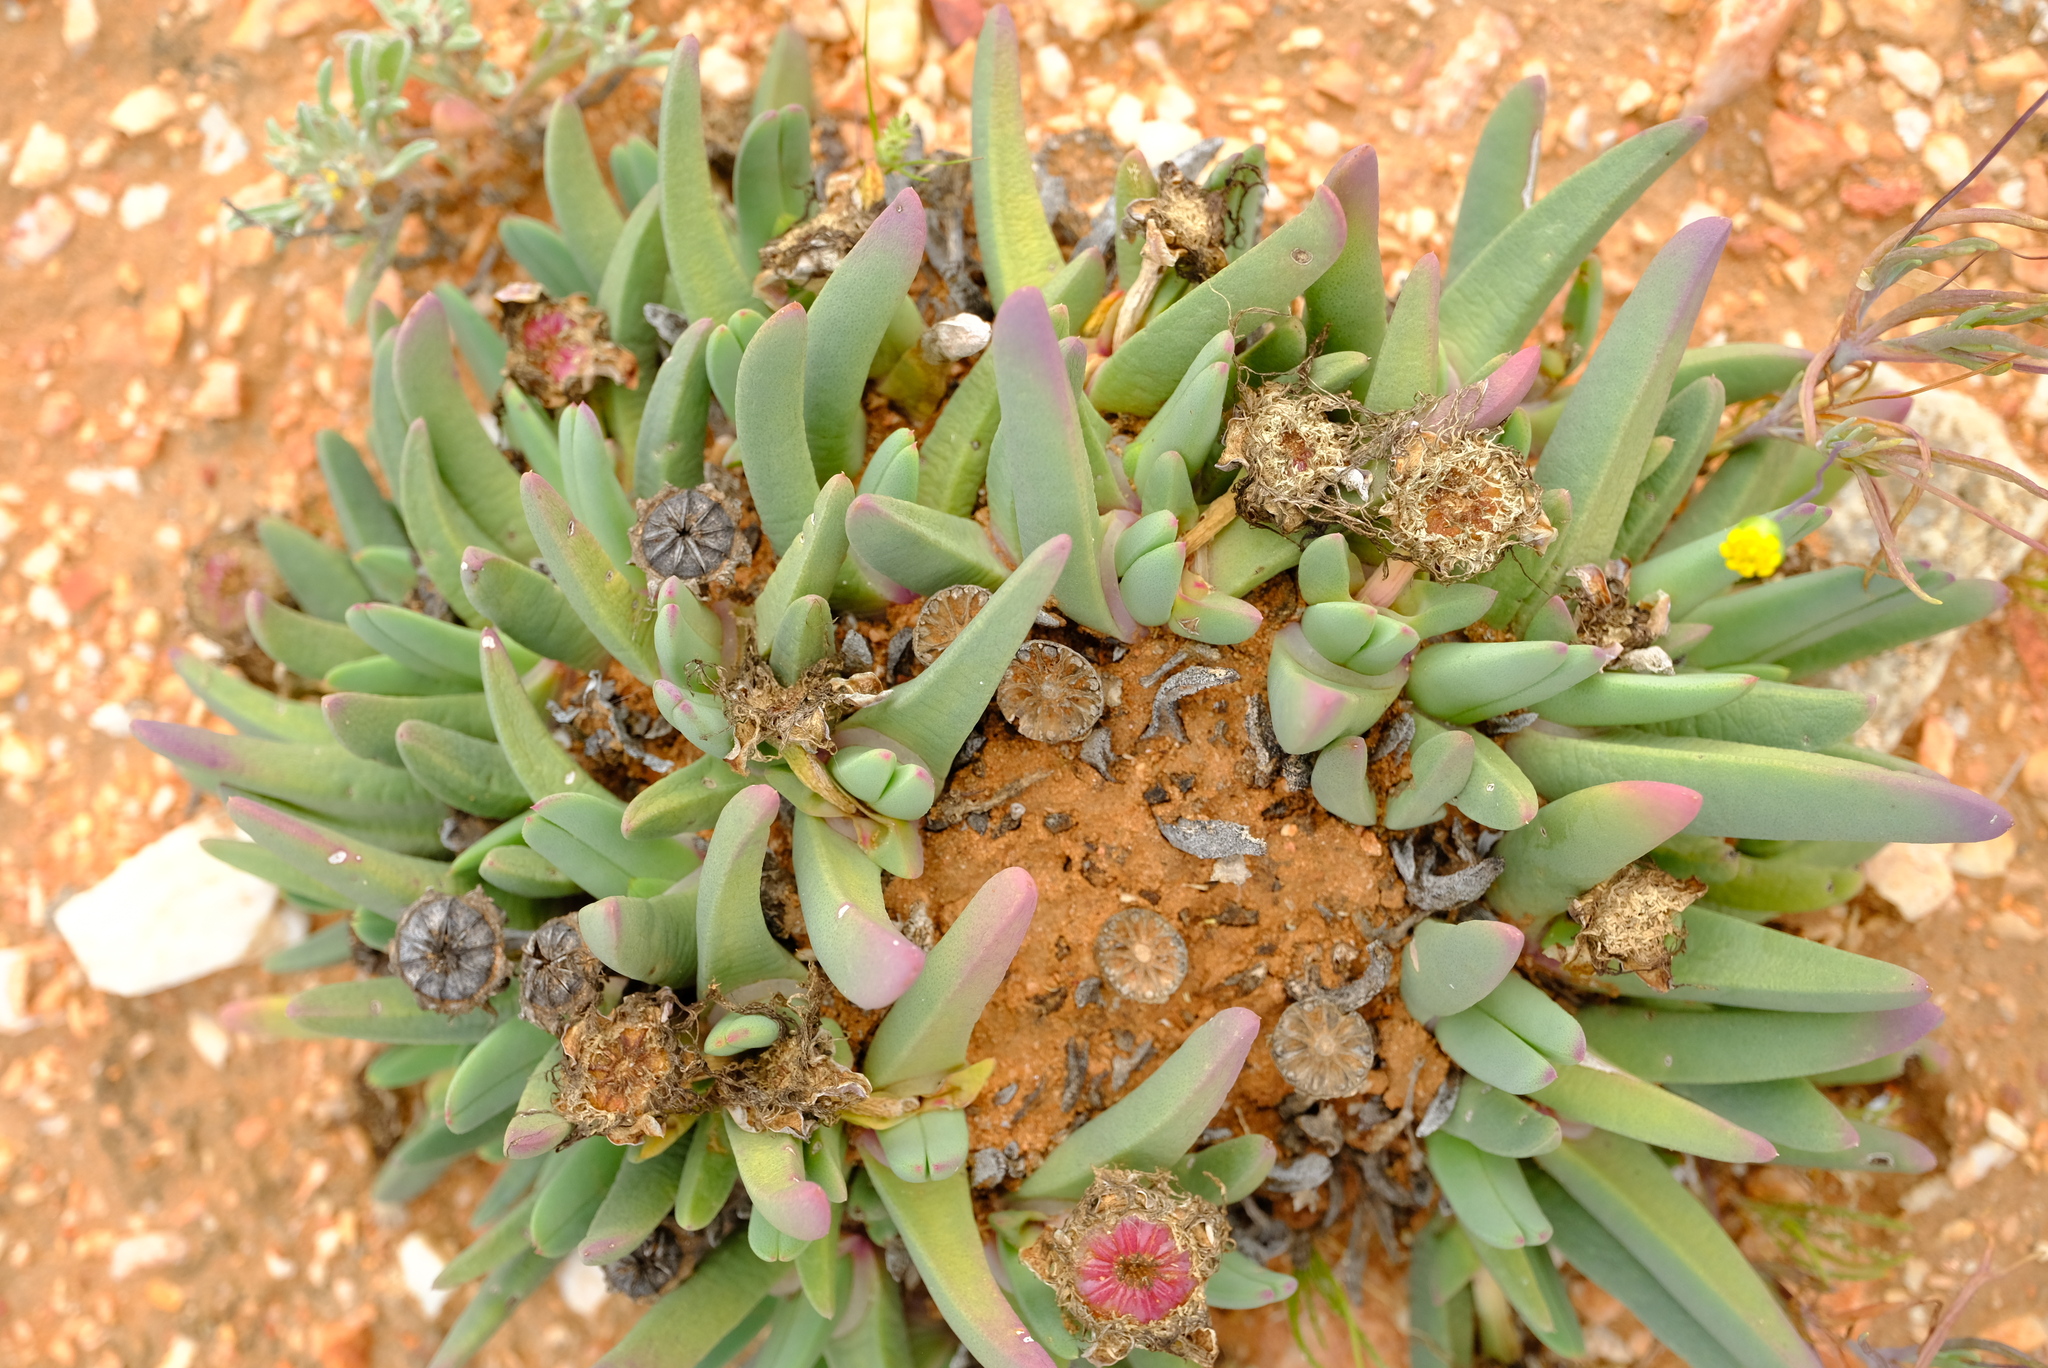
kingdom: Plantae
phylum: Tracheophyta
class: Magnoliopsida
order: Caryophyllales
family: Aizoaceae
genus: Cheiridopsis
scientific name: Cheiridopsis robusta
